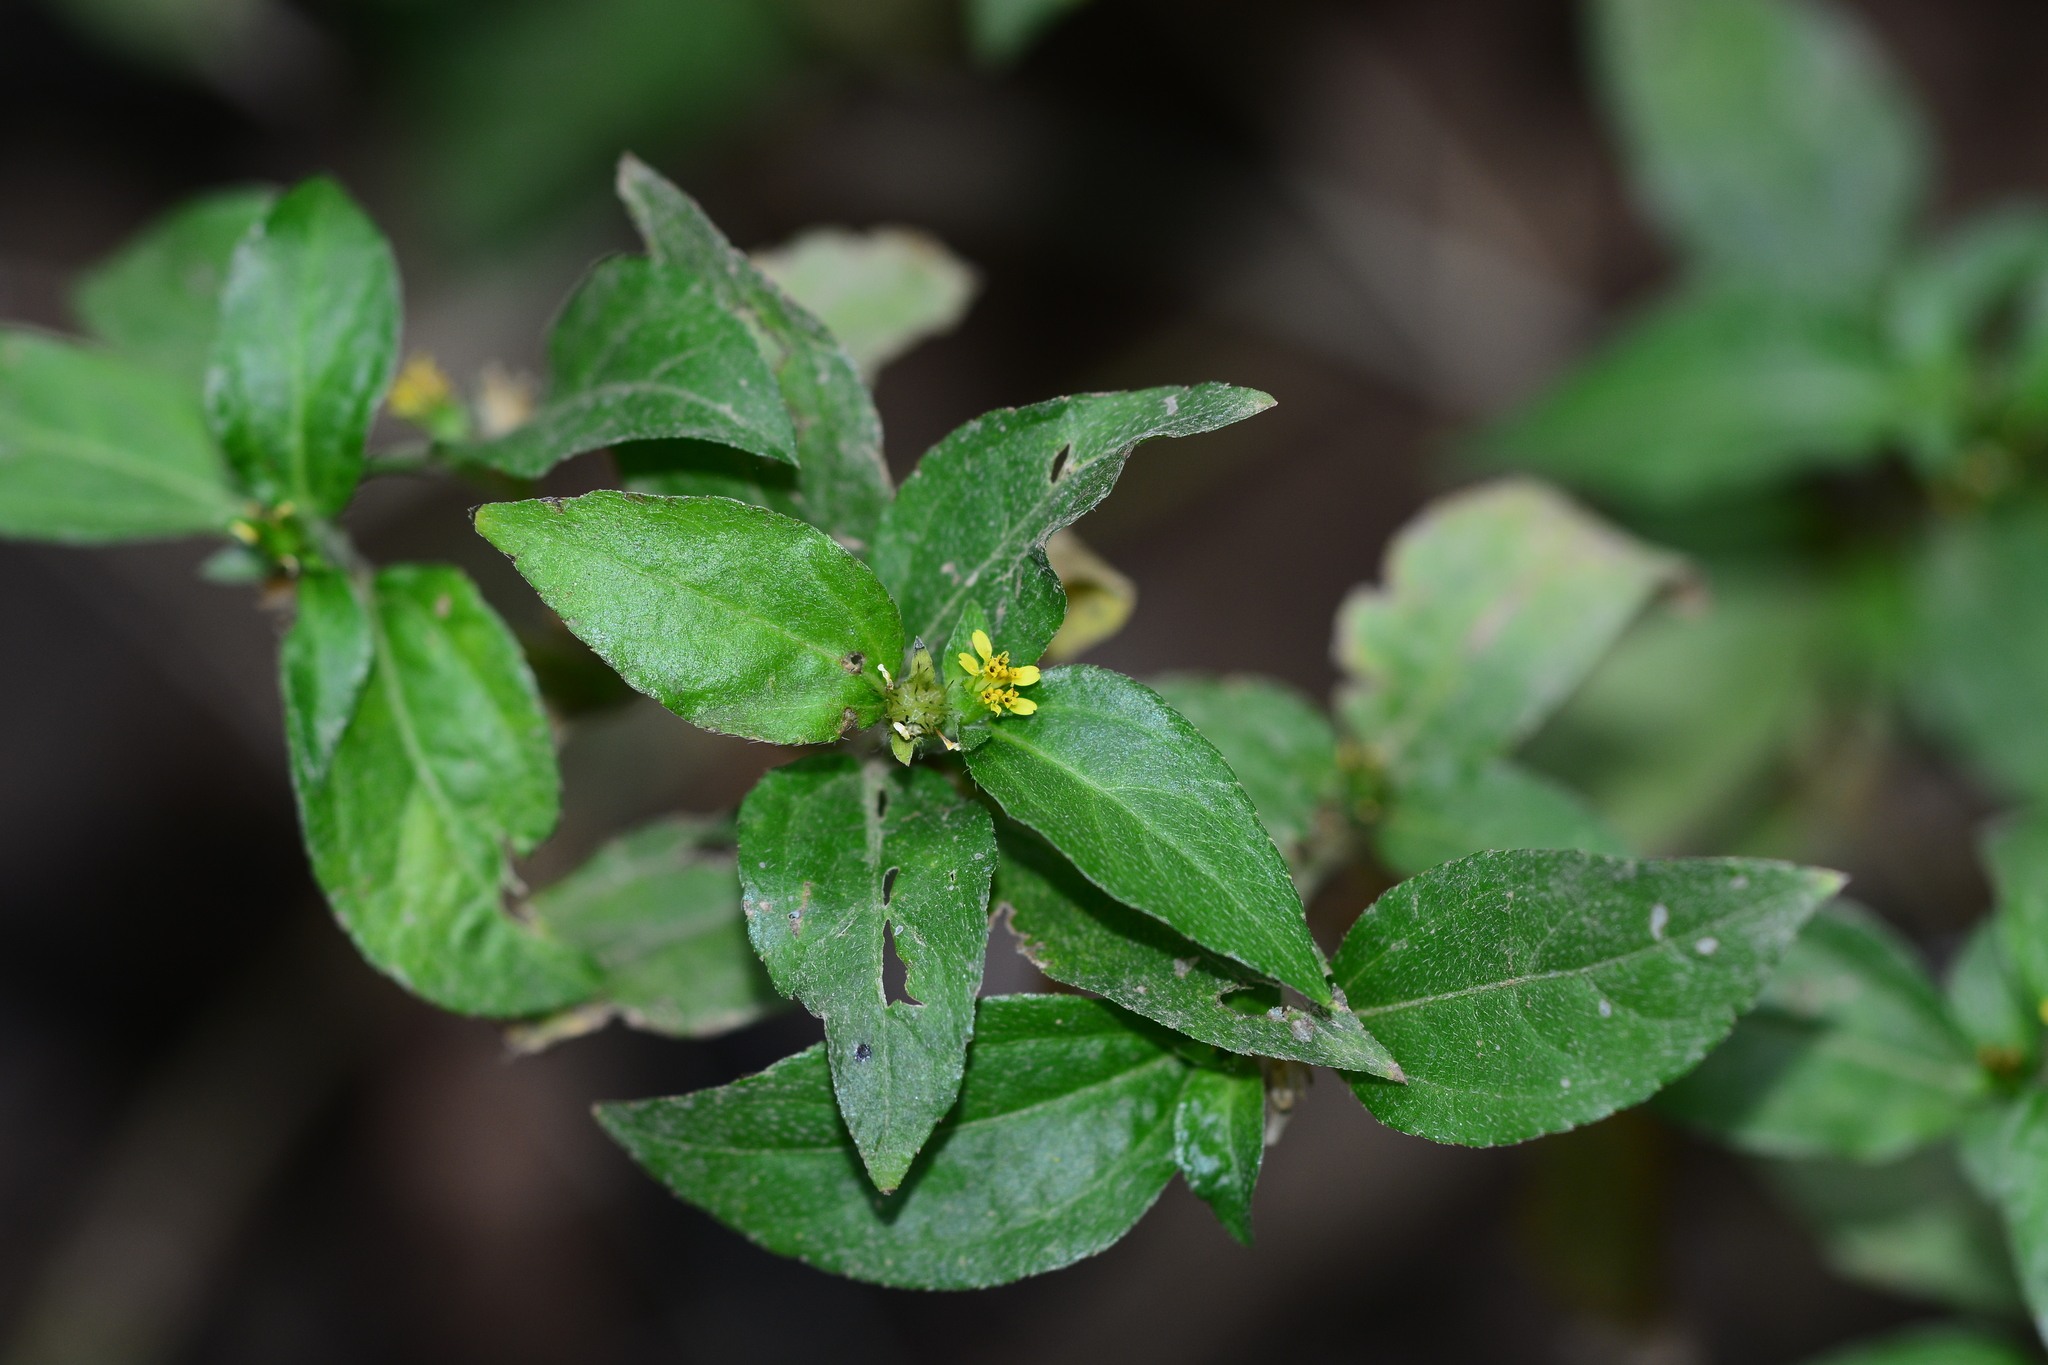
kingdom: Plantae
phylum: Tracheophyta
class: Magnoliopsida
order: Asterales
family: Asteraceae
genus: Synedrella
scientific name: Synedrella nodiflora
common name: Nodeweed
